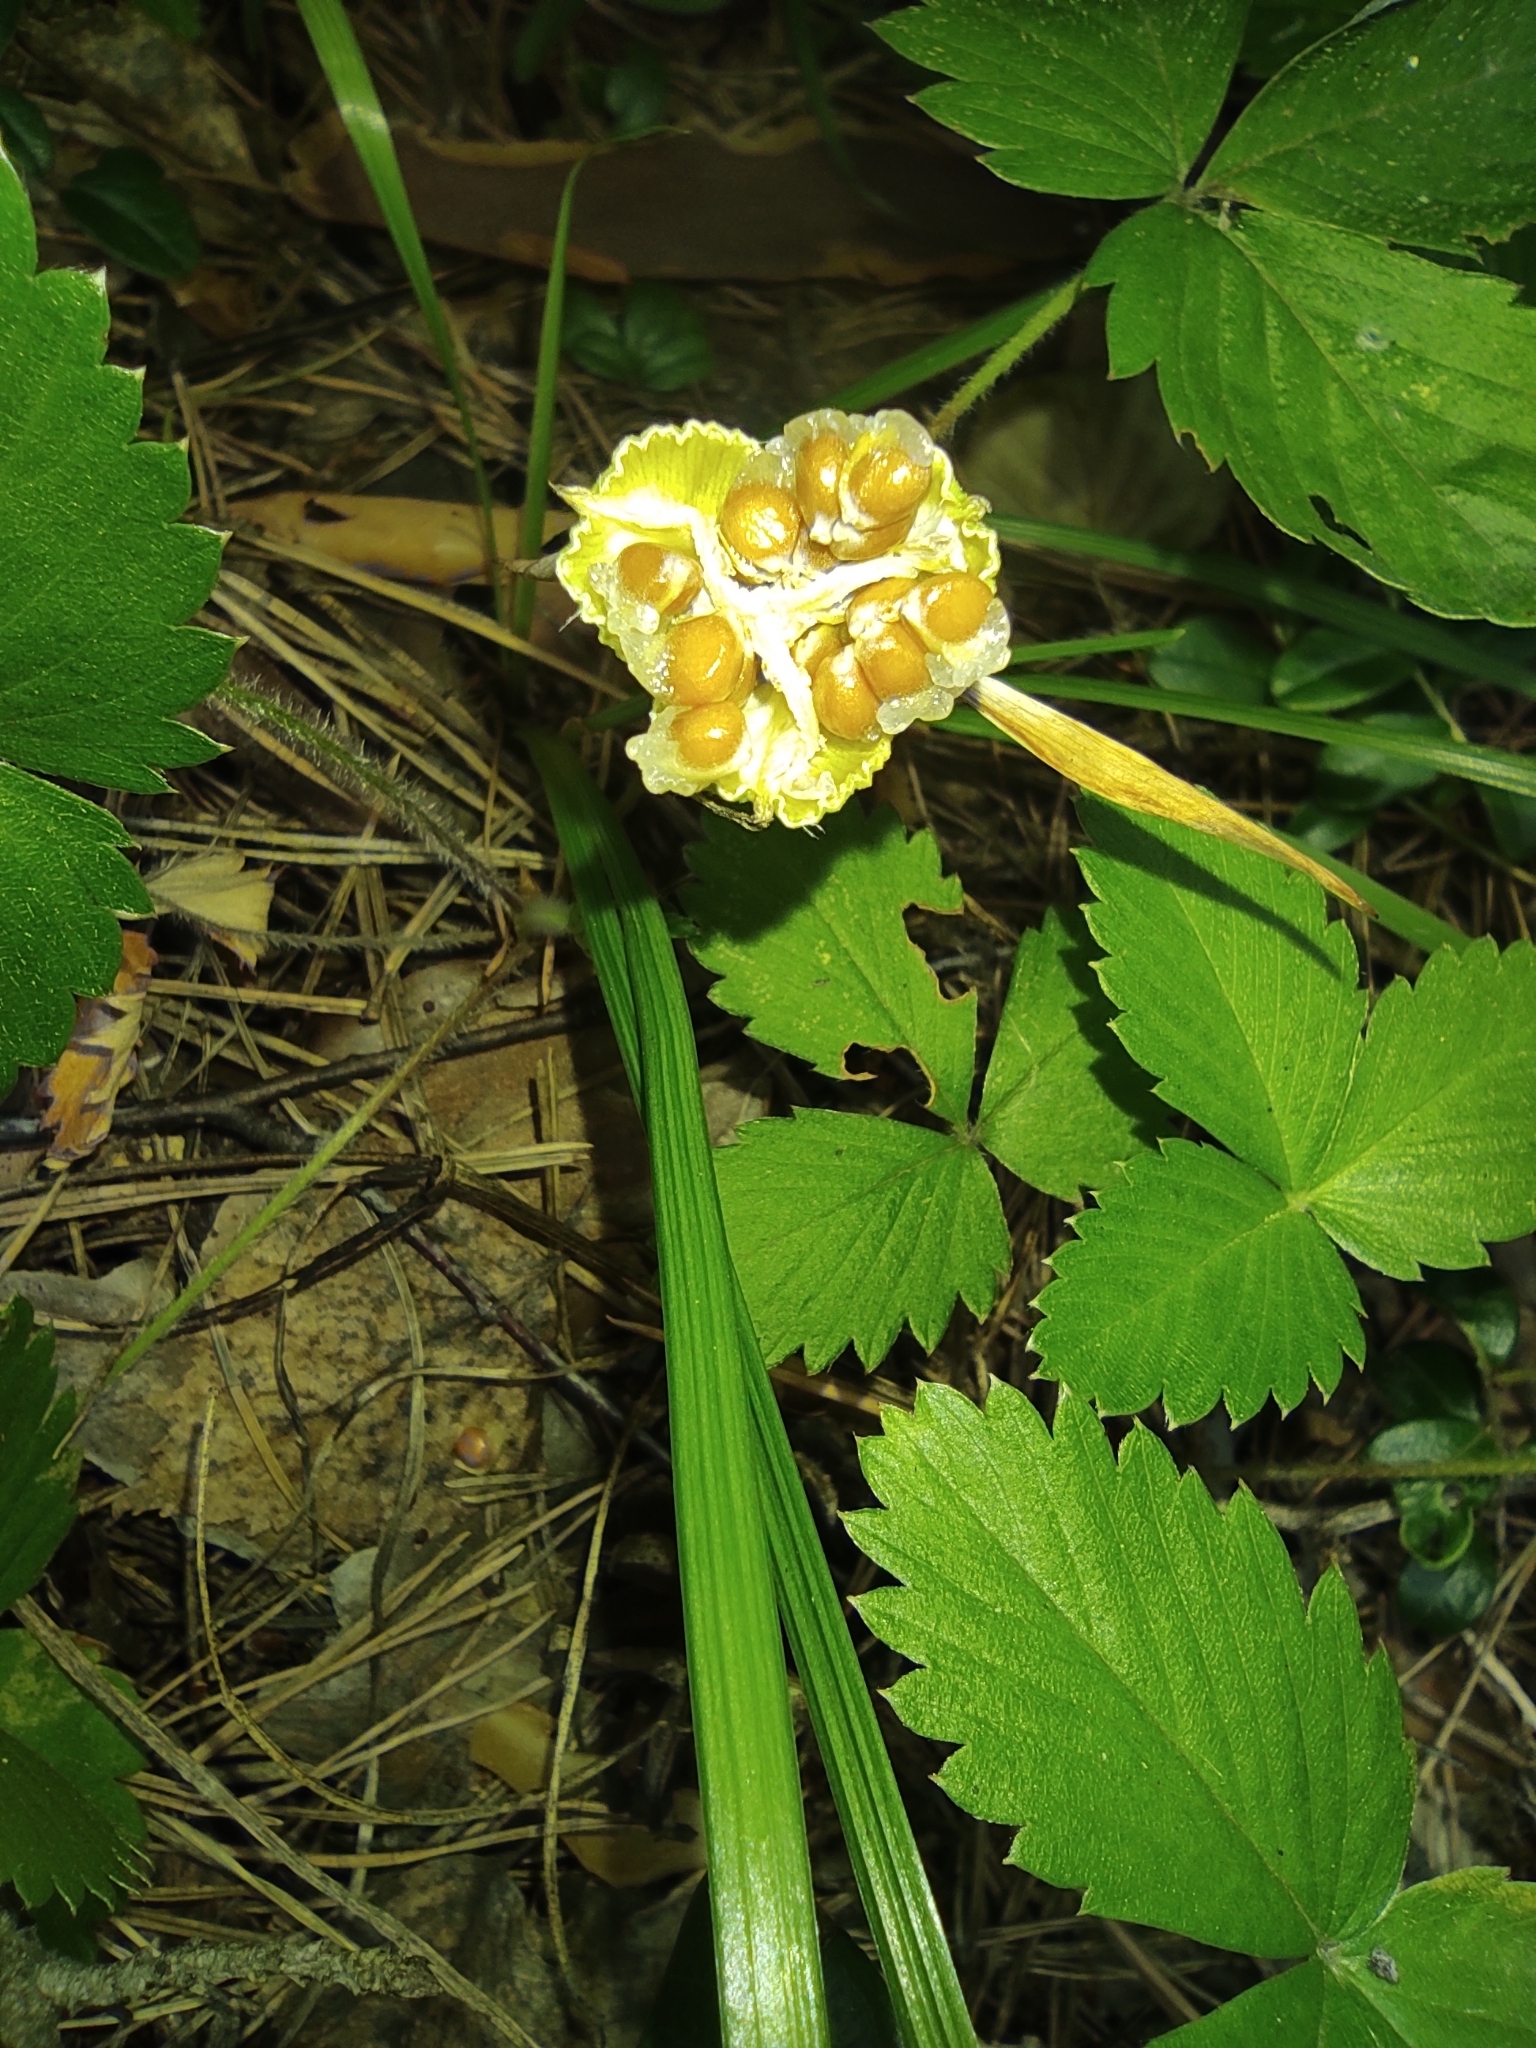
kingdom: Plantae
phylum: Tracheophyta
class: Liliopsida
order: Asparagales
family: Iridaceae
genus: Iris
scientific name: Iris ruthenica
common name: Purple-bract iris
